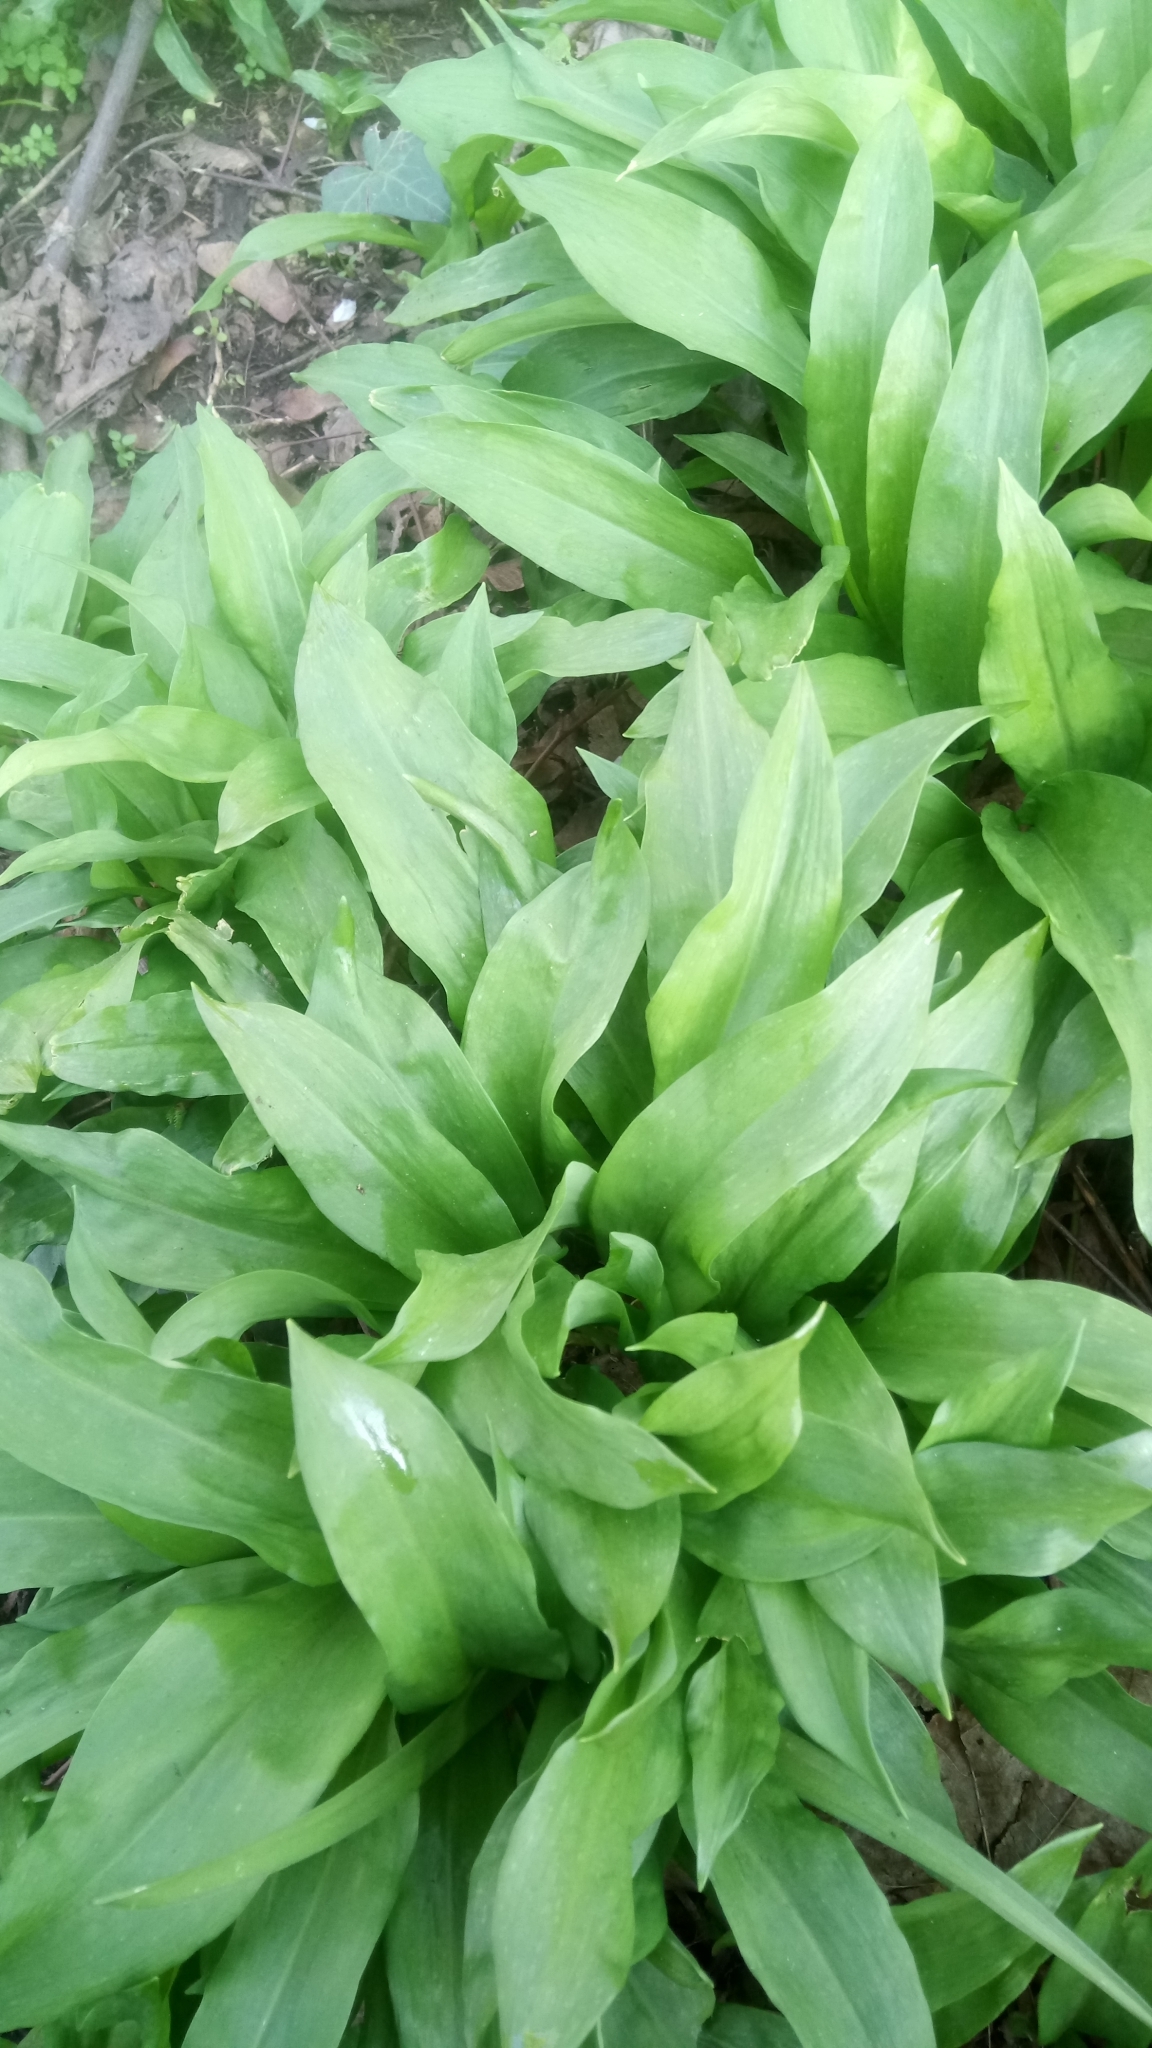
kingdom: Plantae
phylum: Tracheophyta
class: Liliopsida
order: Asparagales
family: Amaryllidaceae
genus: Allium
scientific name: Allium ursinum
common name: Ramsons
